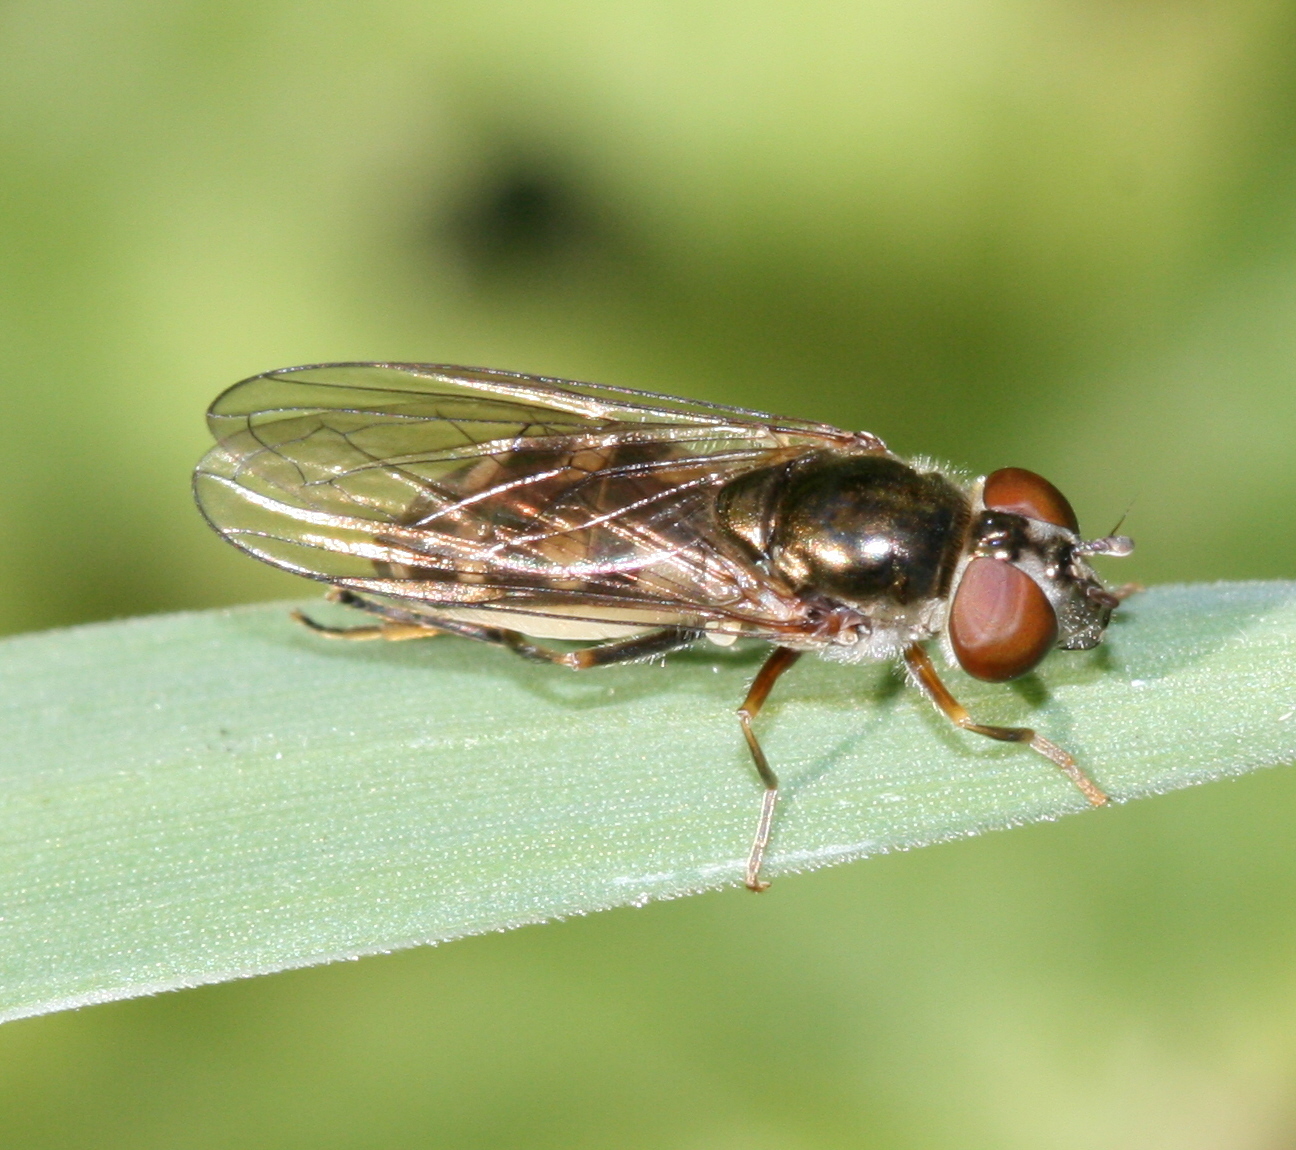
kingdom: Animalia
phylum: Arthropoda
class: Insecta
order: Diptera
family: Syrphidae
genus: Platycheirus
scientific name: Platycheirus peltatus
